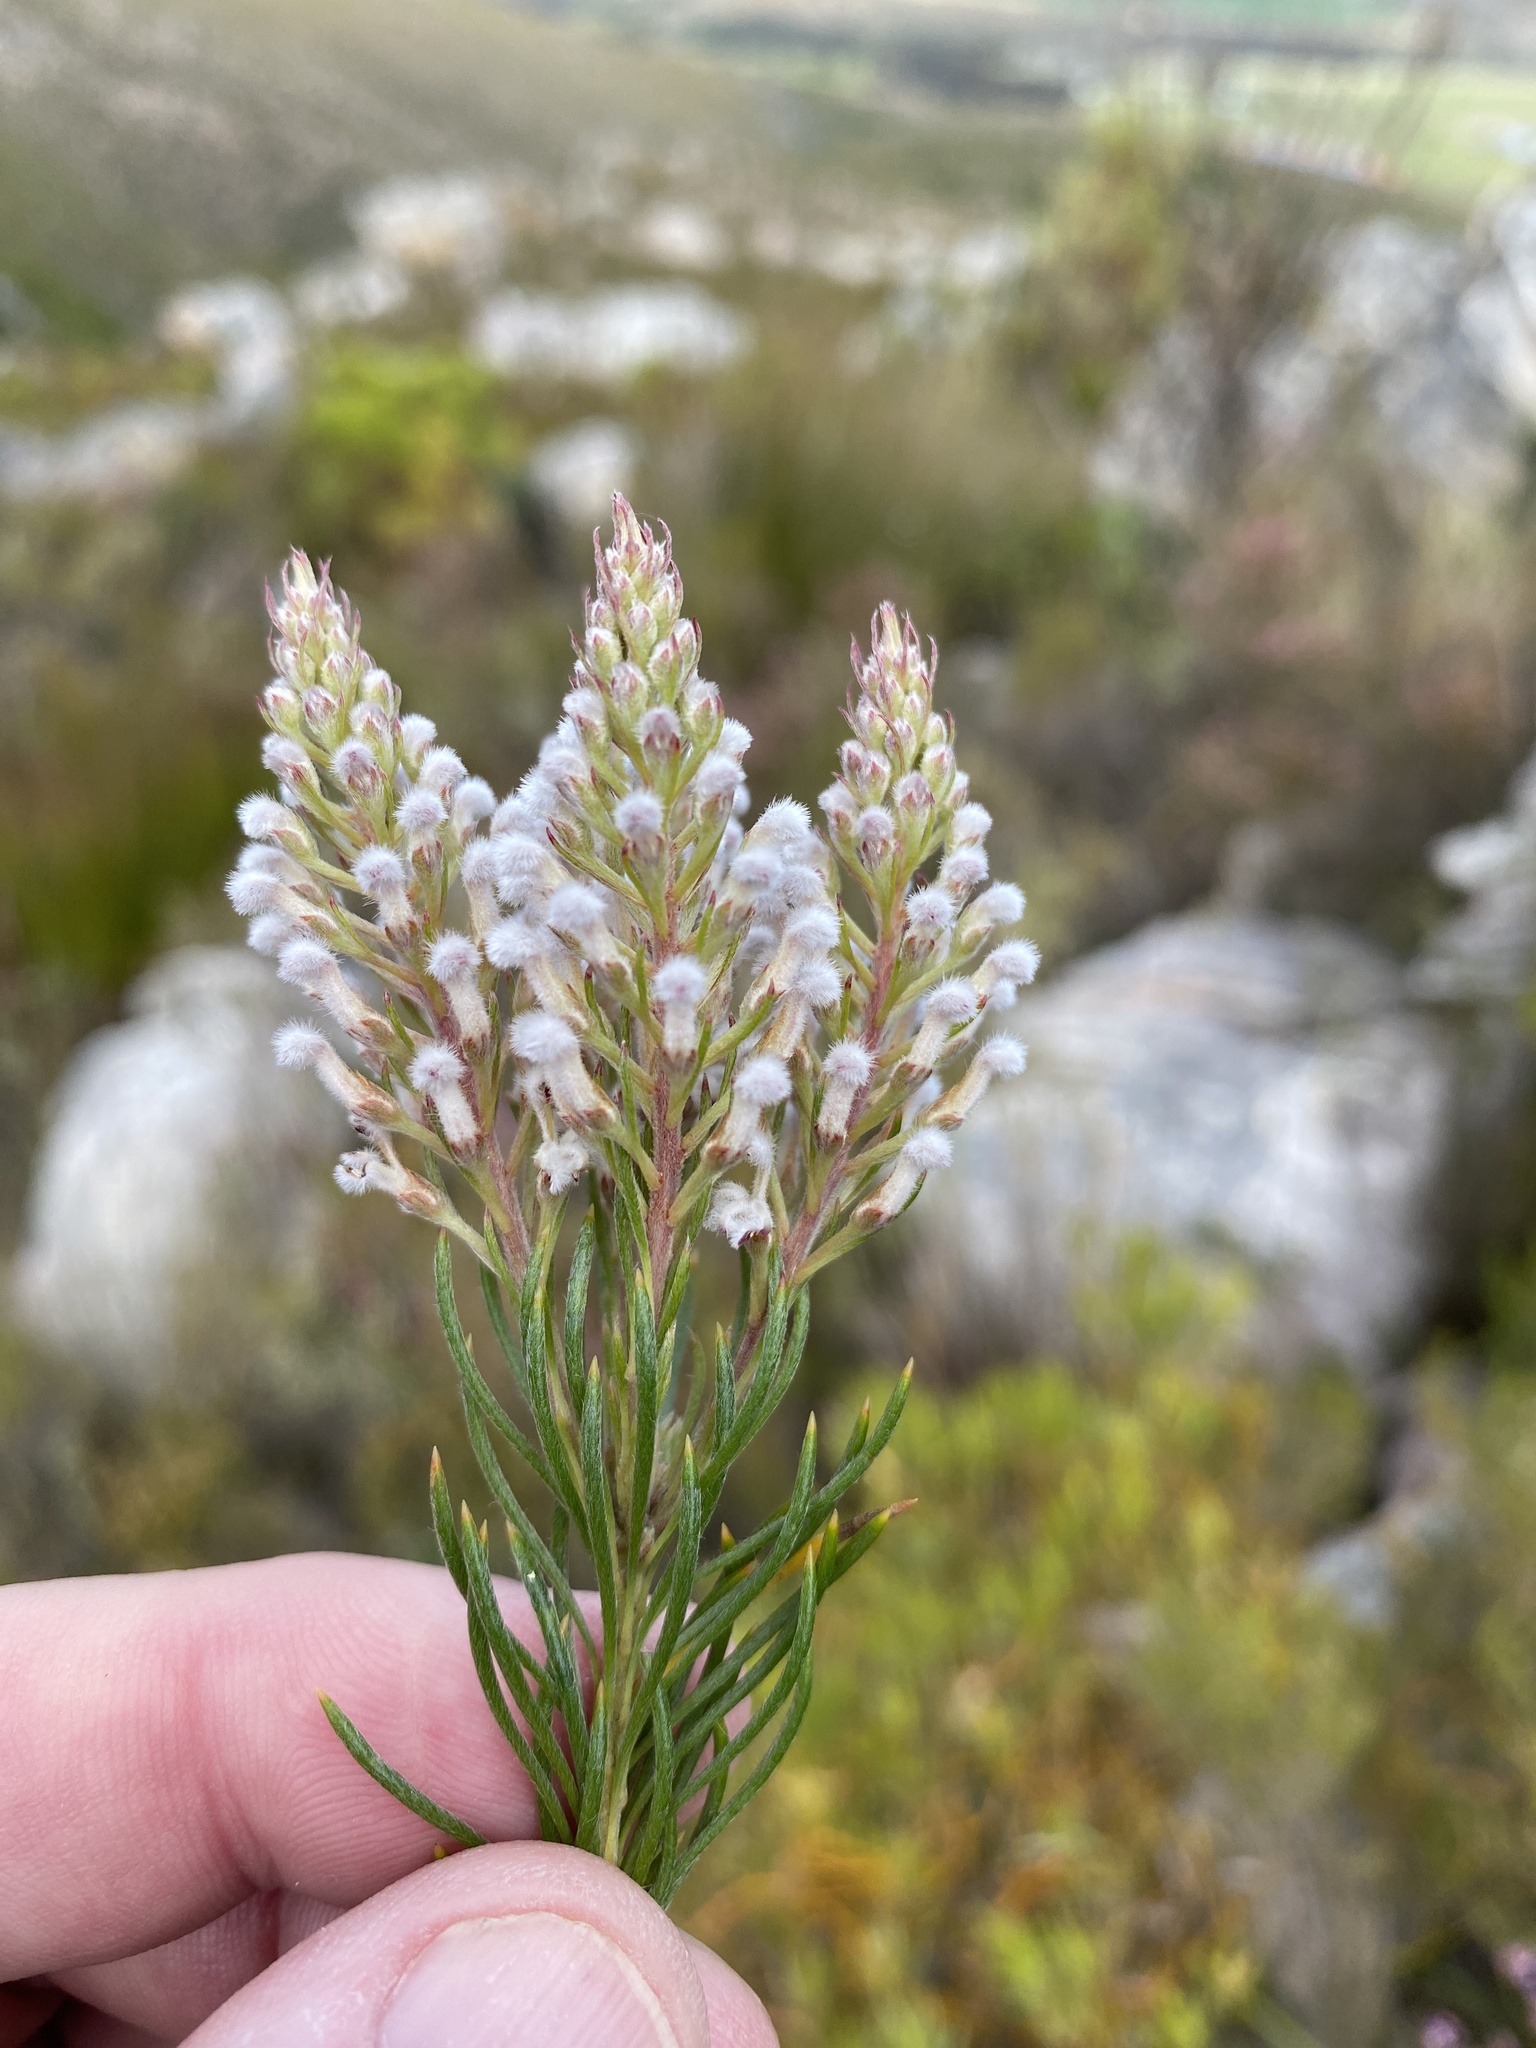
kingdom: Plantae
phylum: Tracheophyta
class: Magnoliopsida
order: Proteales
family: Proteaceae
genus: Spatalla
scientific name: Spatalla curvifolia
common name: White-stalked spoon
